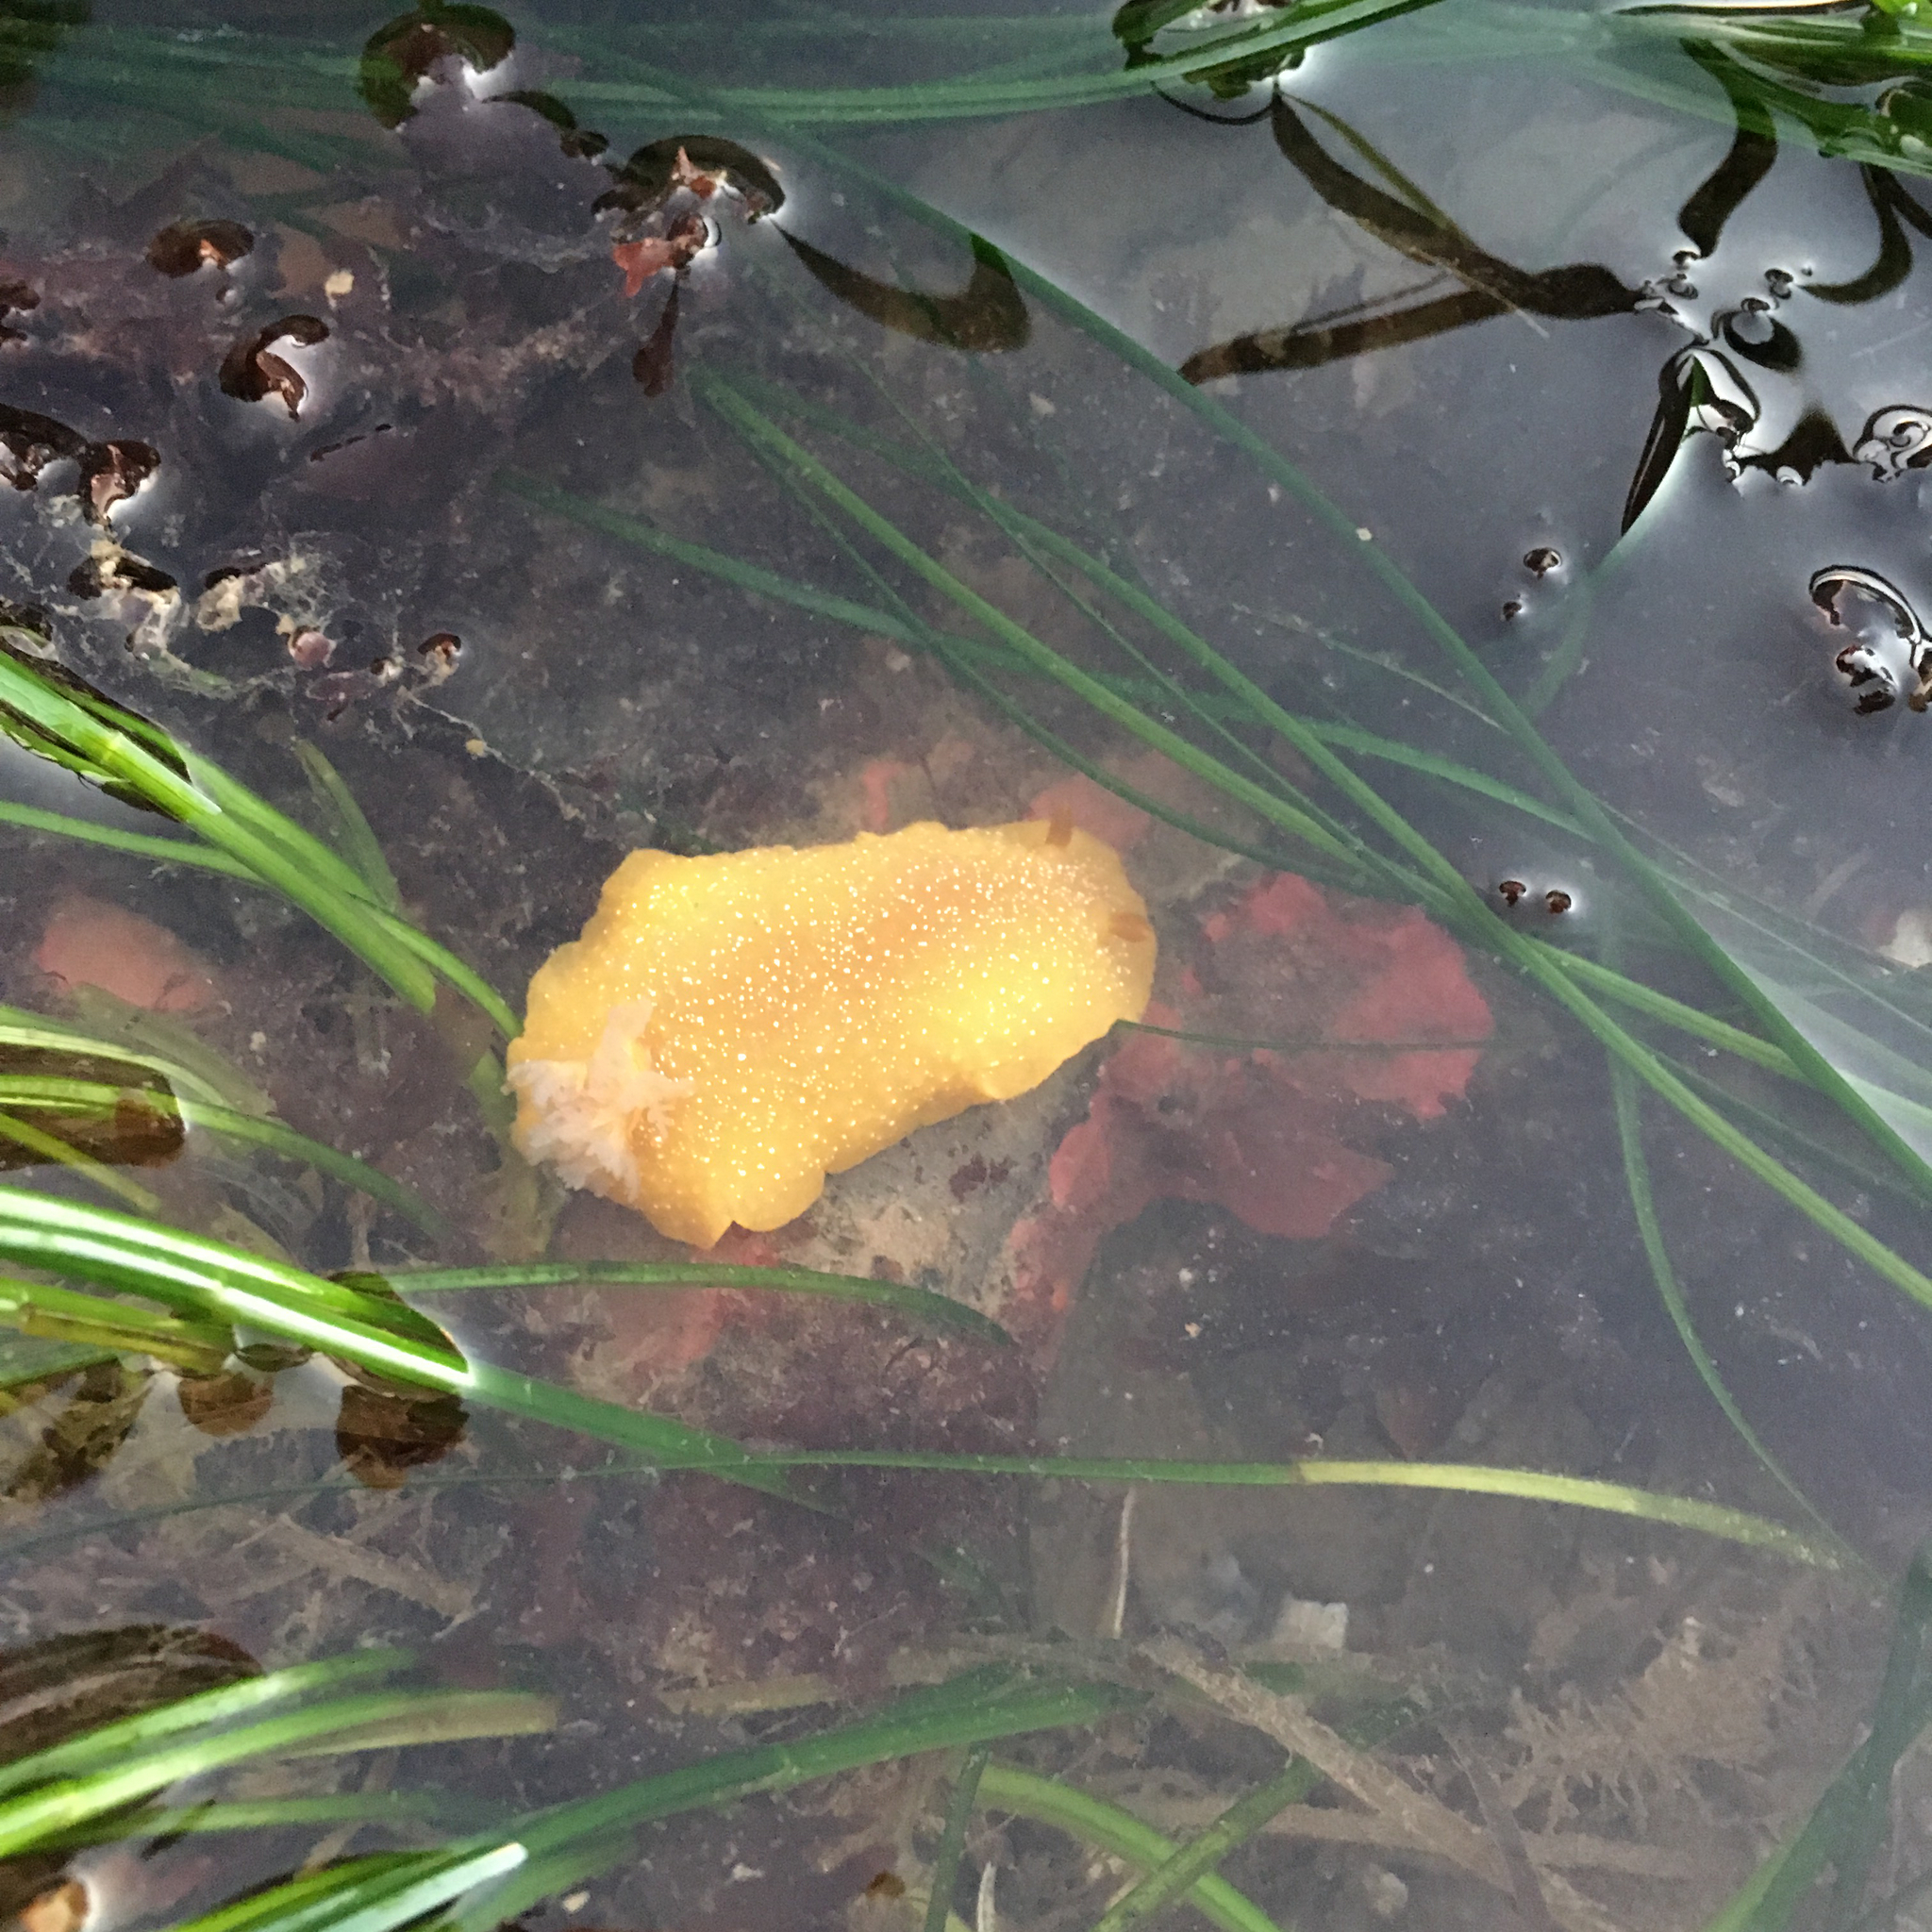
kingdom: Animalia
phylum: Mollusca
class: Gastropoda
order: Nudibranchia
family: Dendrodorididae
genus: Doriopsilla
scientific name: Doriopsilla albopunctata
